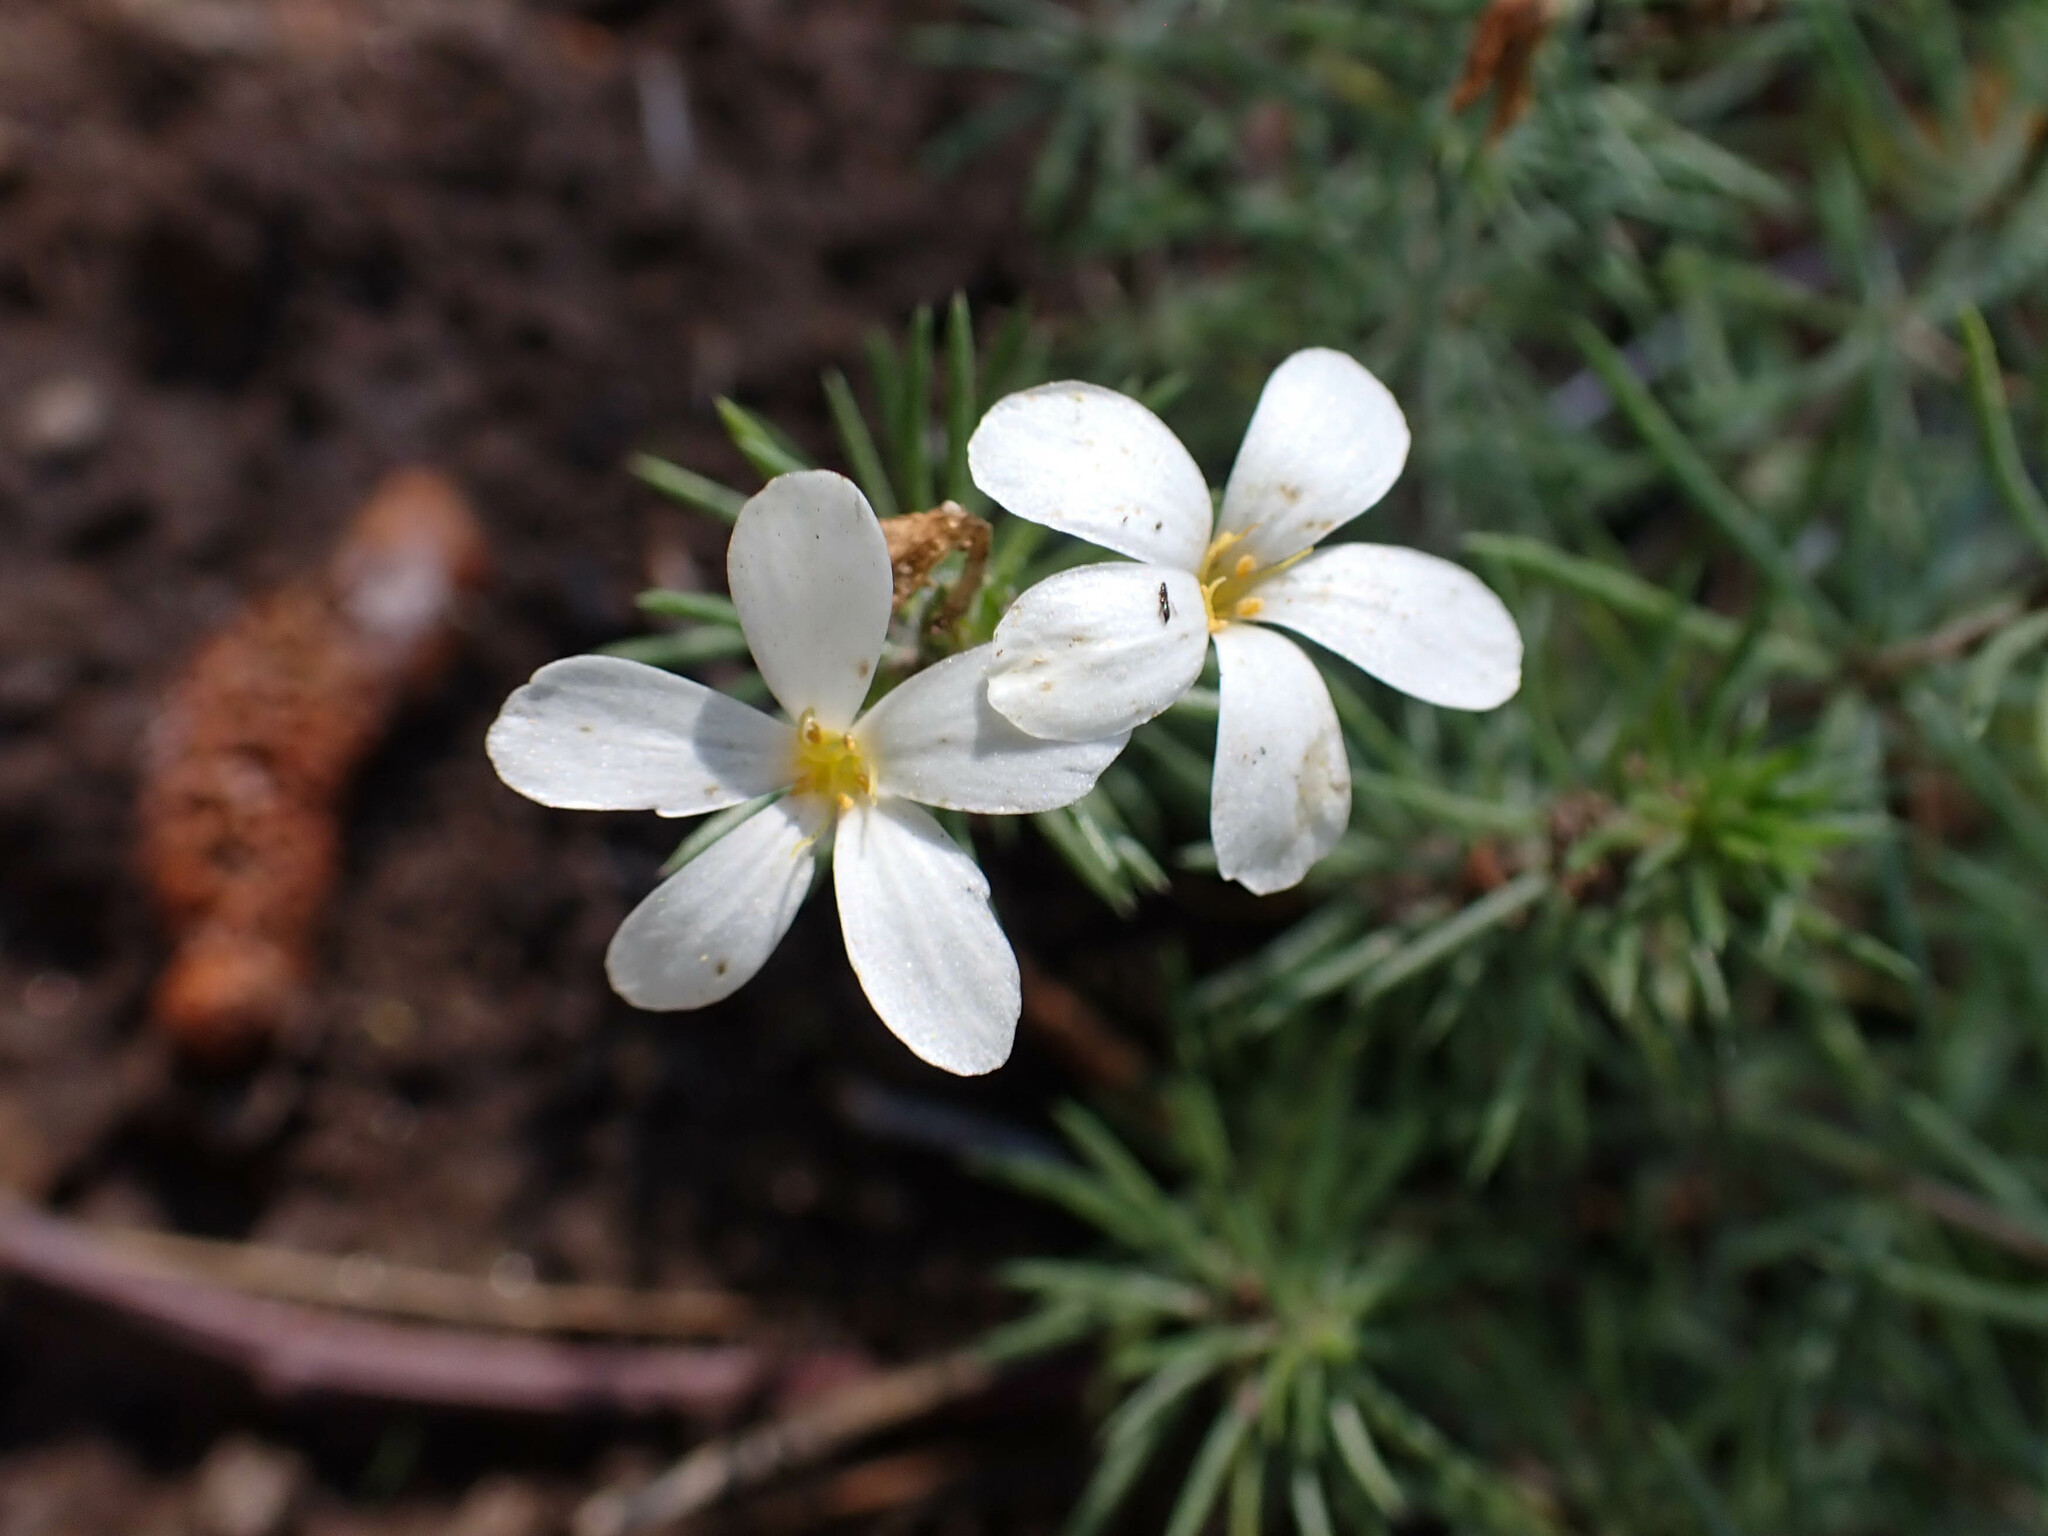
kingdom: Plantae
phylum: Tracheophyta
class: Magnoliopsida
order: Ericales
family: Polemoniaceae
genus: Leptosiphon
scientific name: Leptosiphon floribundum
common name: Many-flower linanthus
